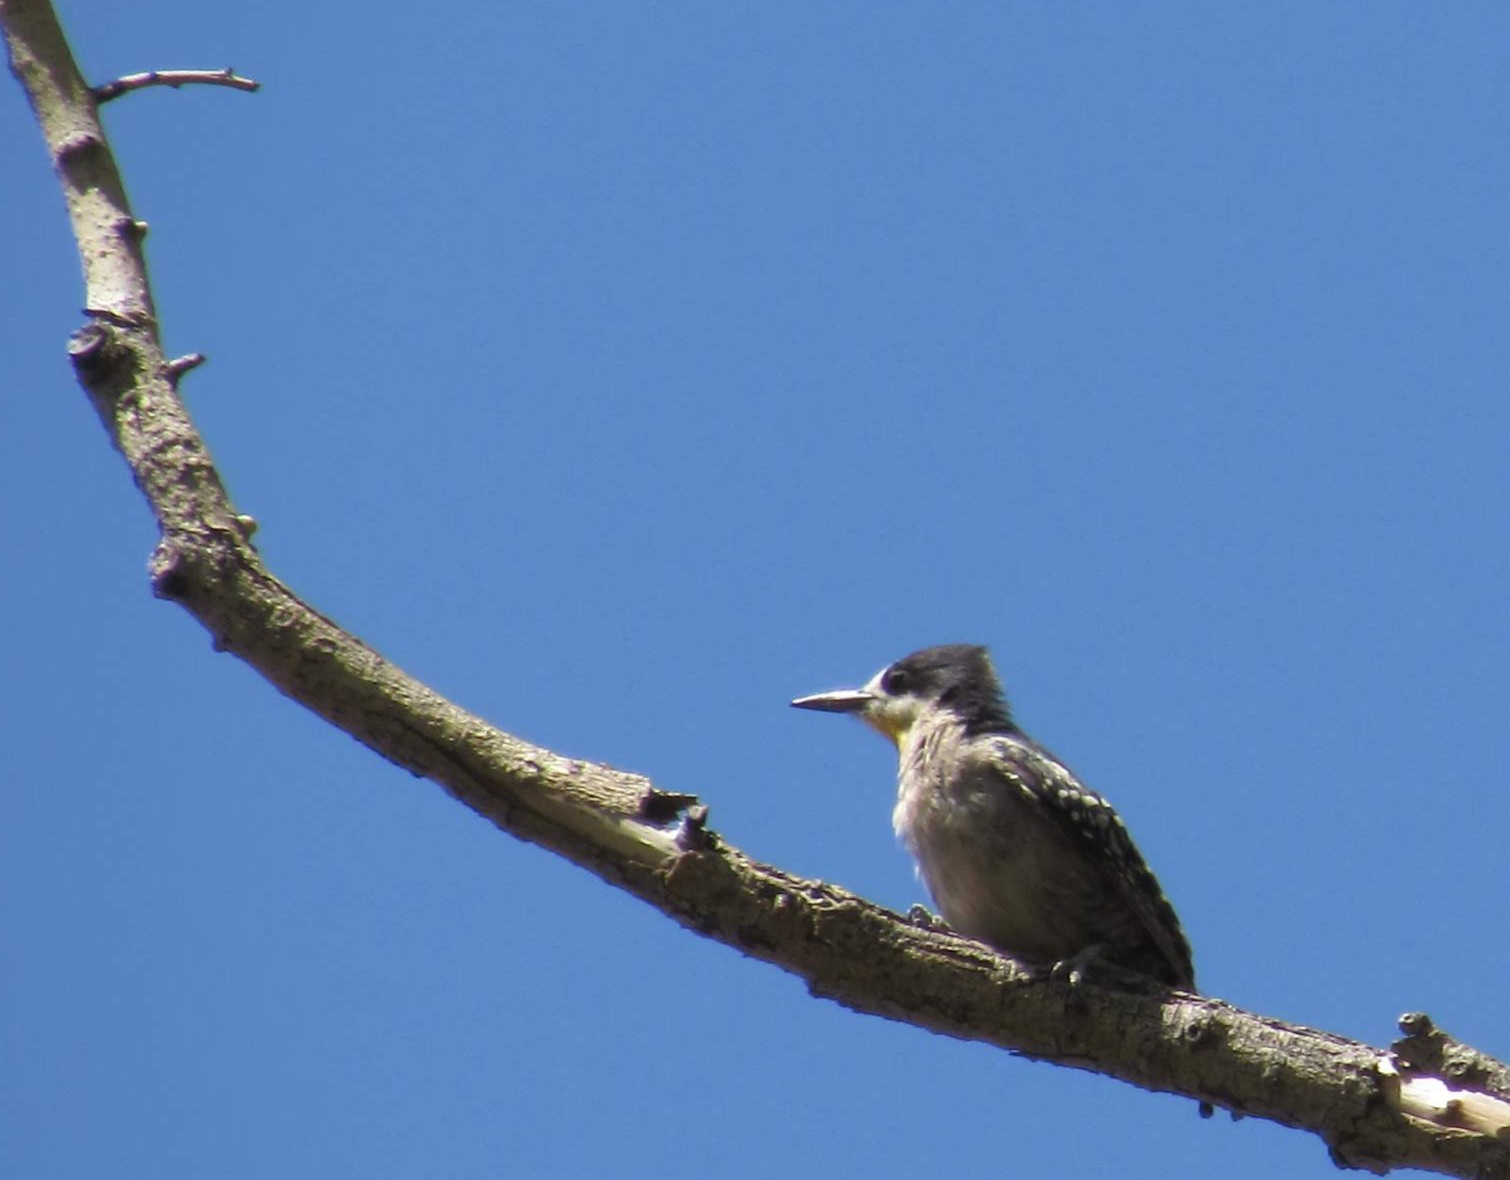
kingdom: Animalia
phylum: Chordata
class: Aves
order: Piciformes
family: Picidae
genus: Melanerpes
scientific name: Melanerpes cactorum
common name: White-fronted woodpecker
